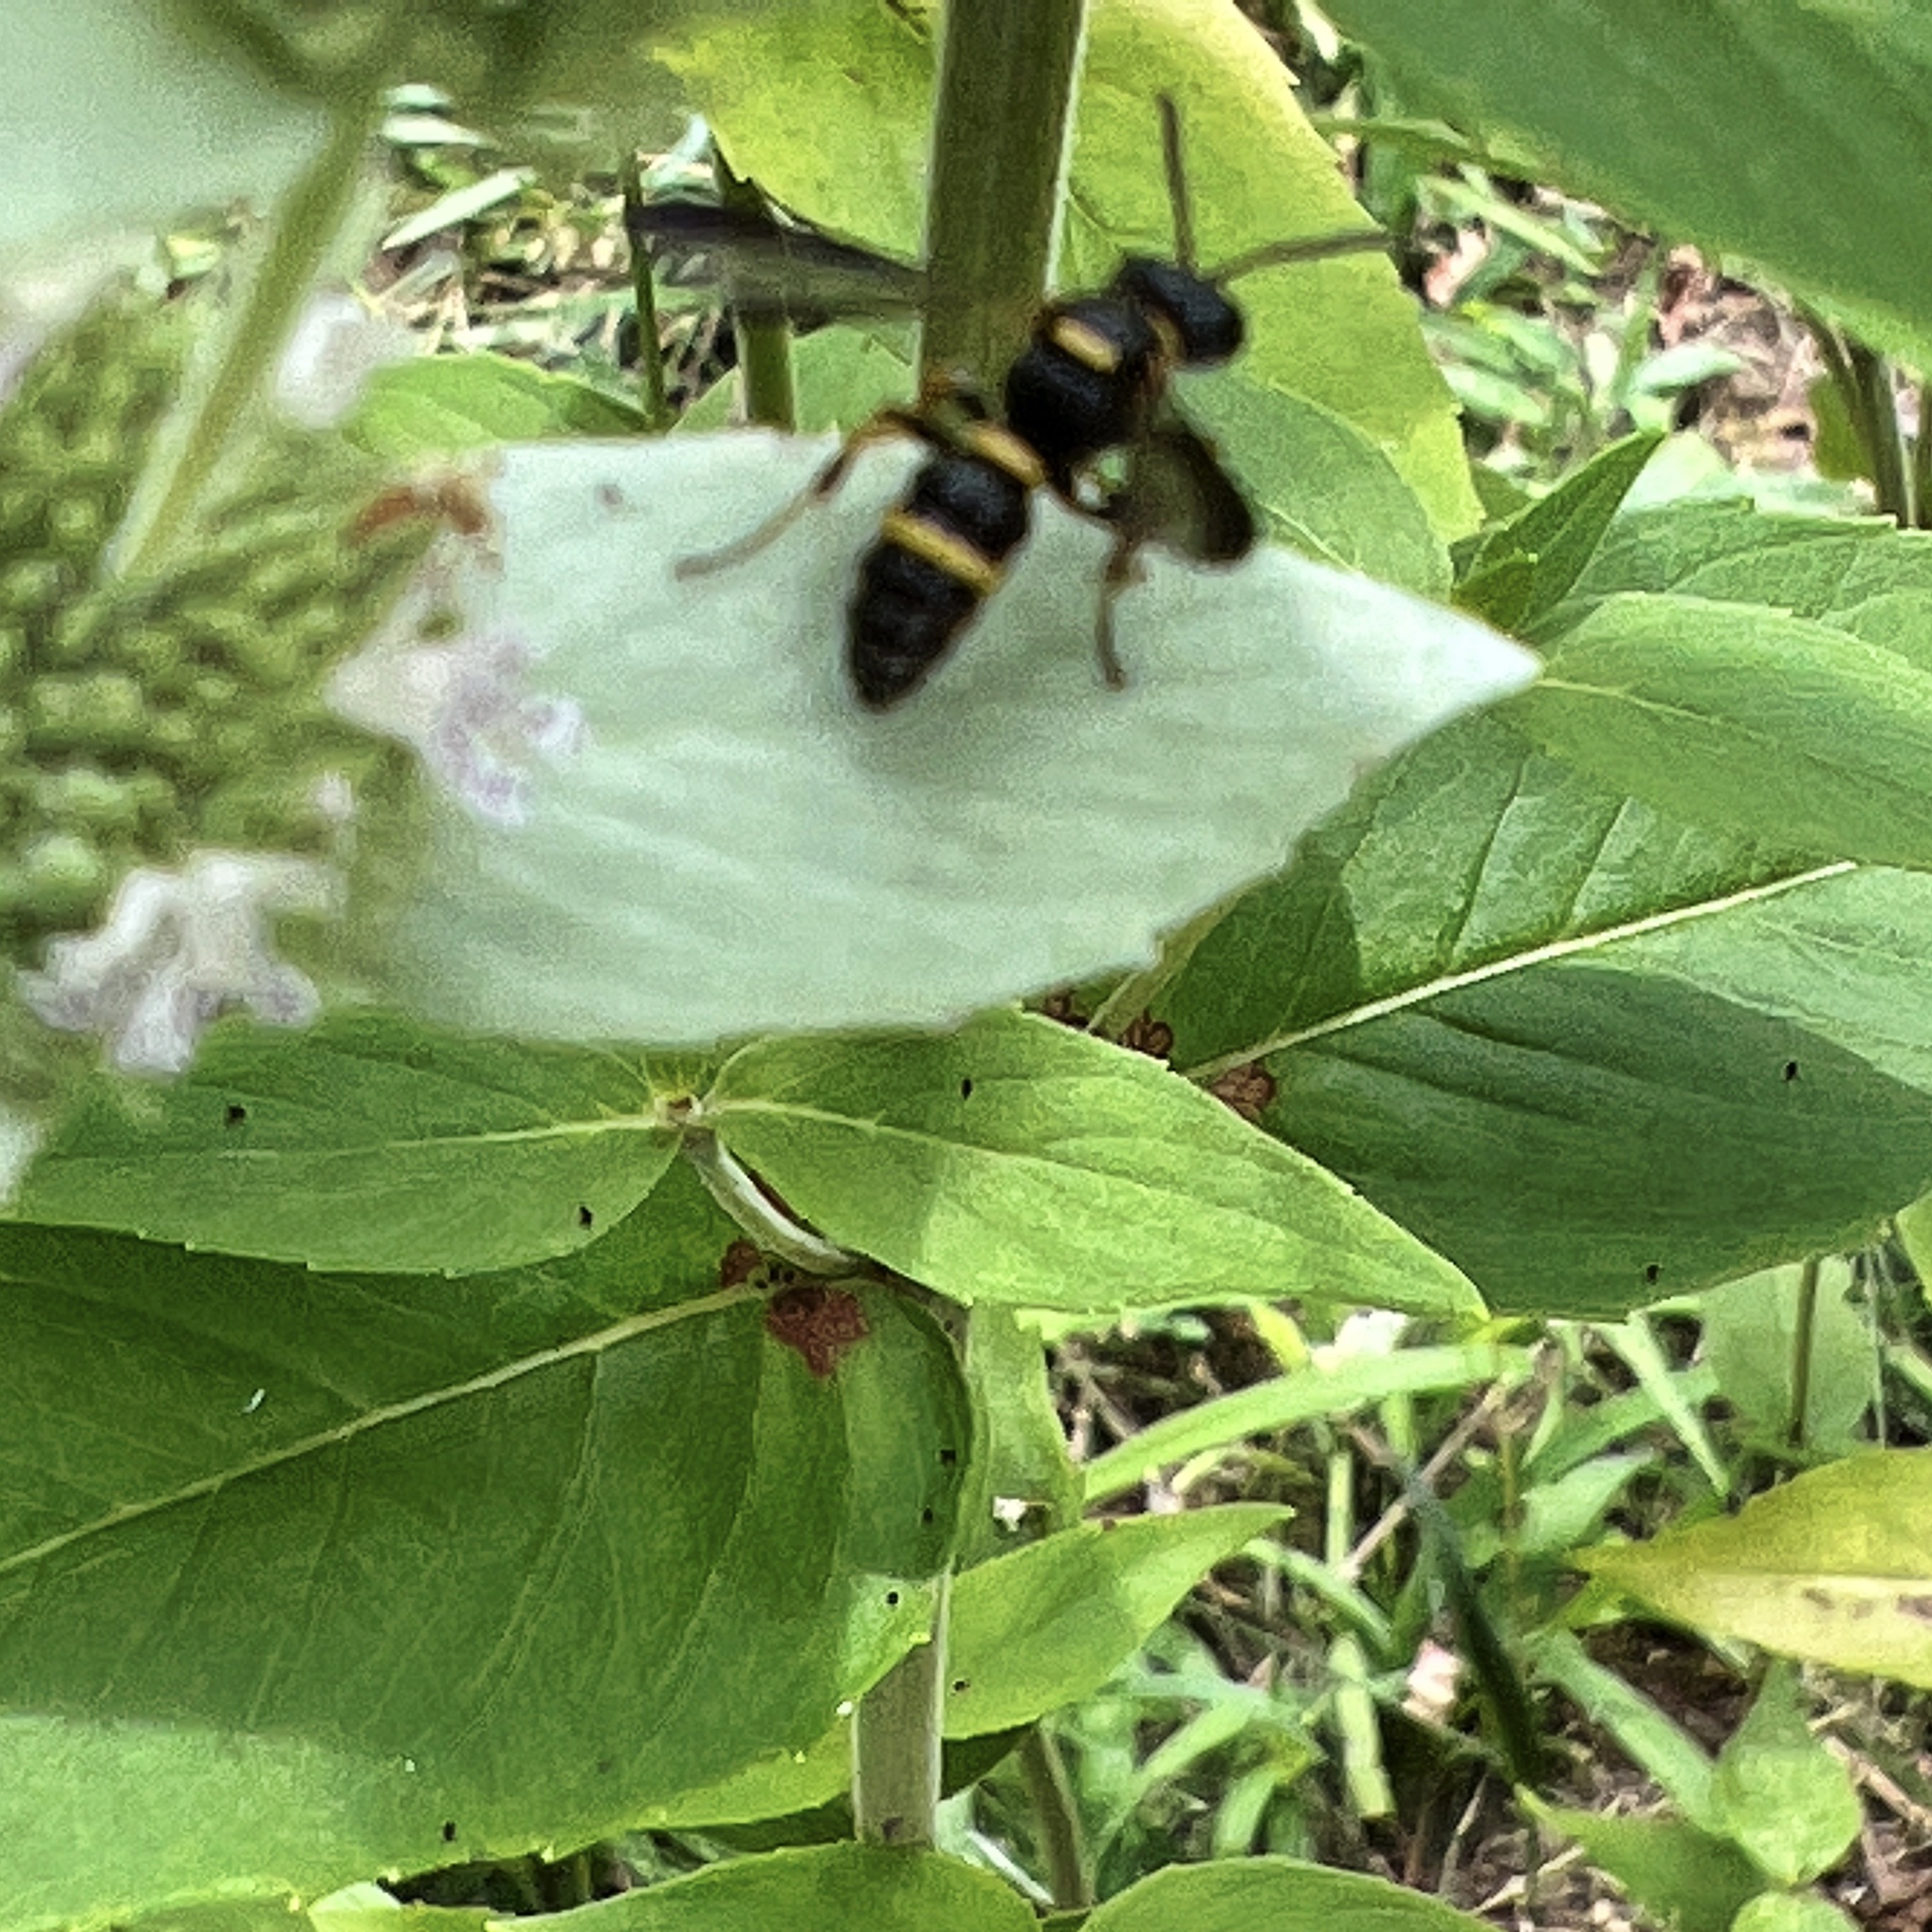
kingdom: Animalia
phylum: Arthropoda
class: Insecta
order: Hymenoptera
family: Crabronidae
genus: Cerceris
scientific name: Cerceris insolita
